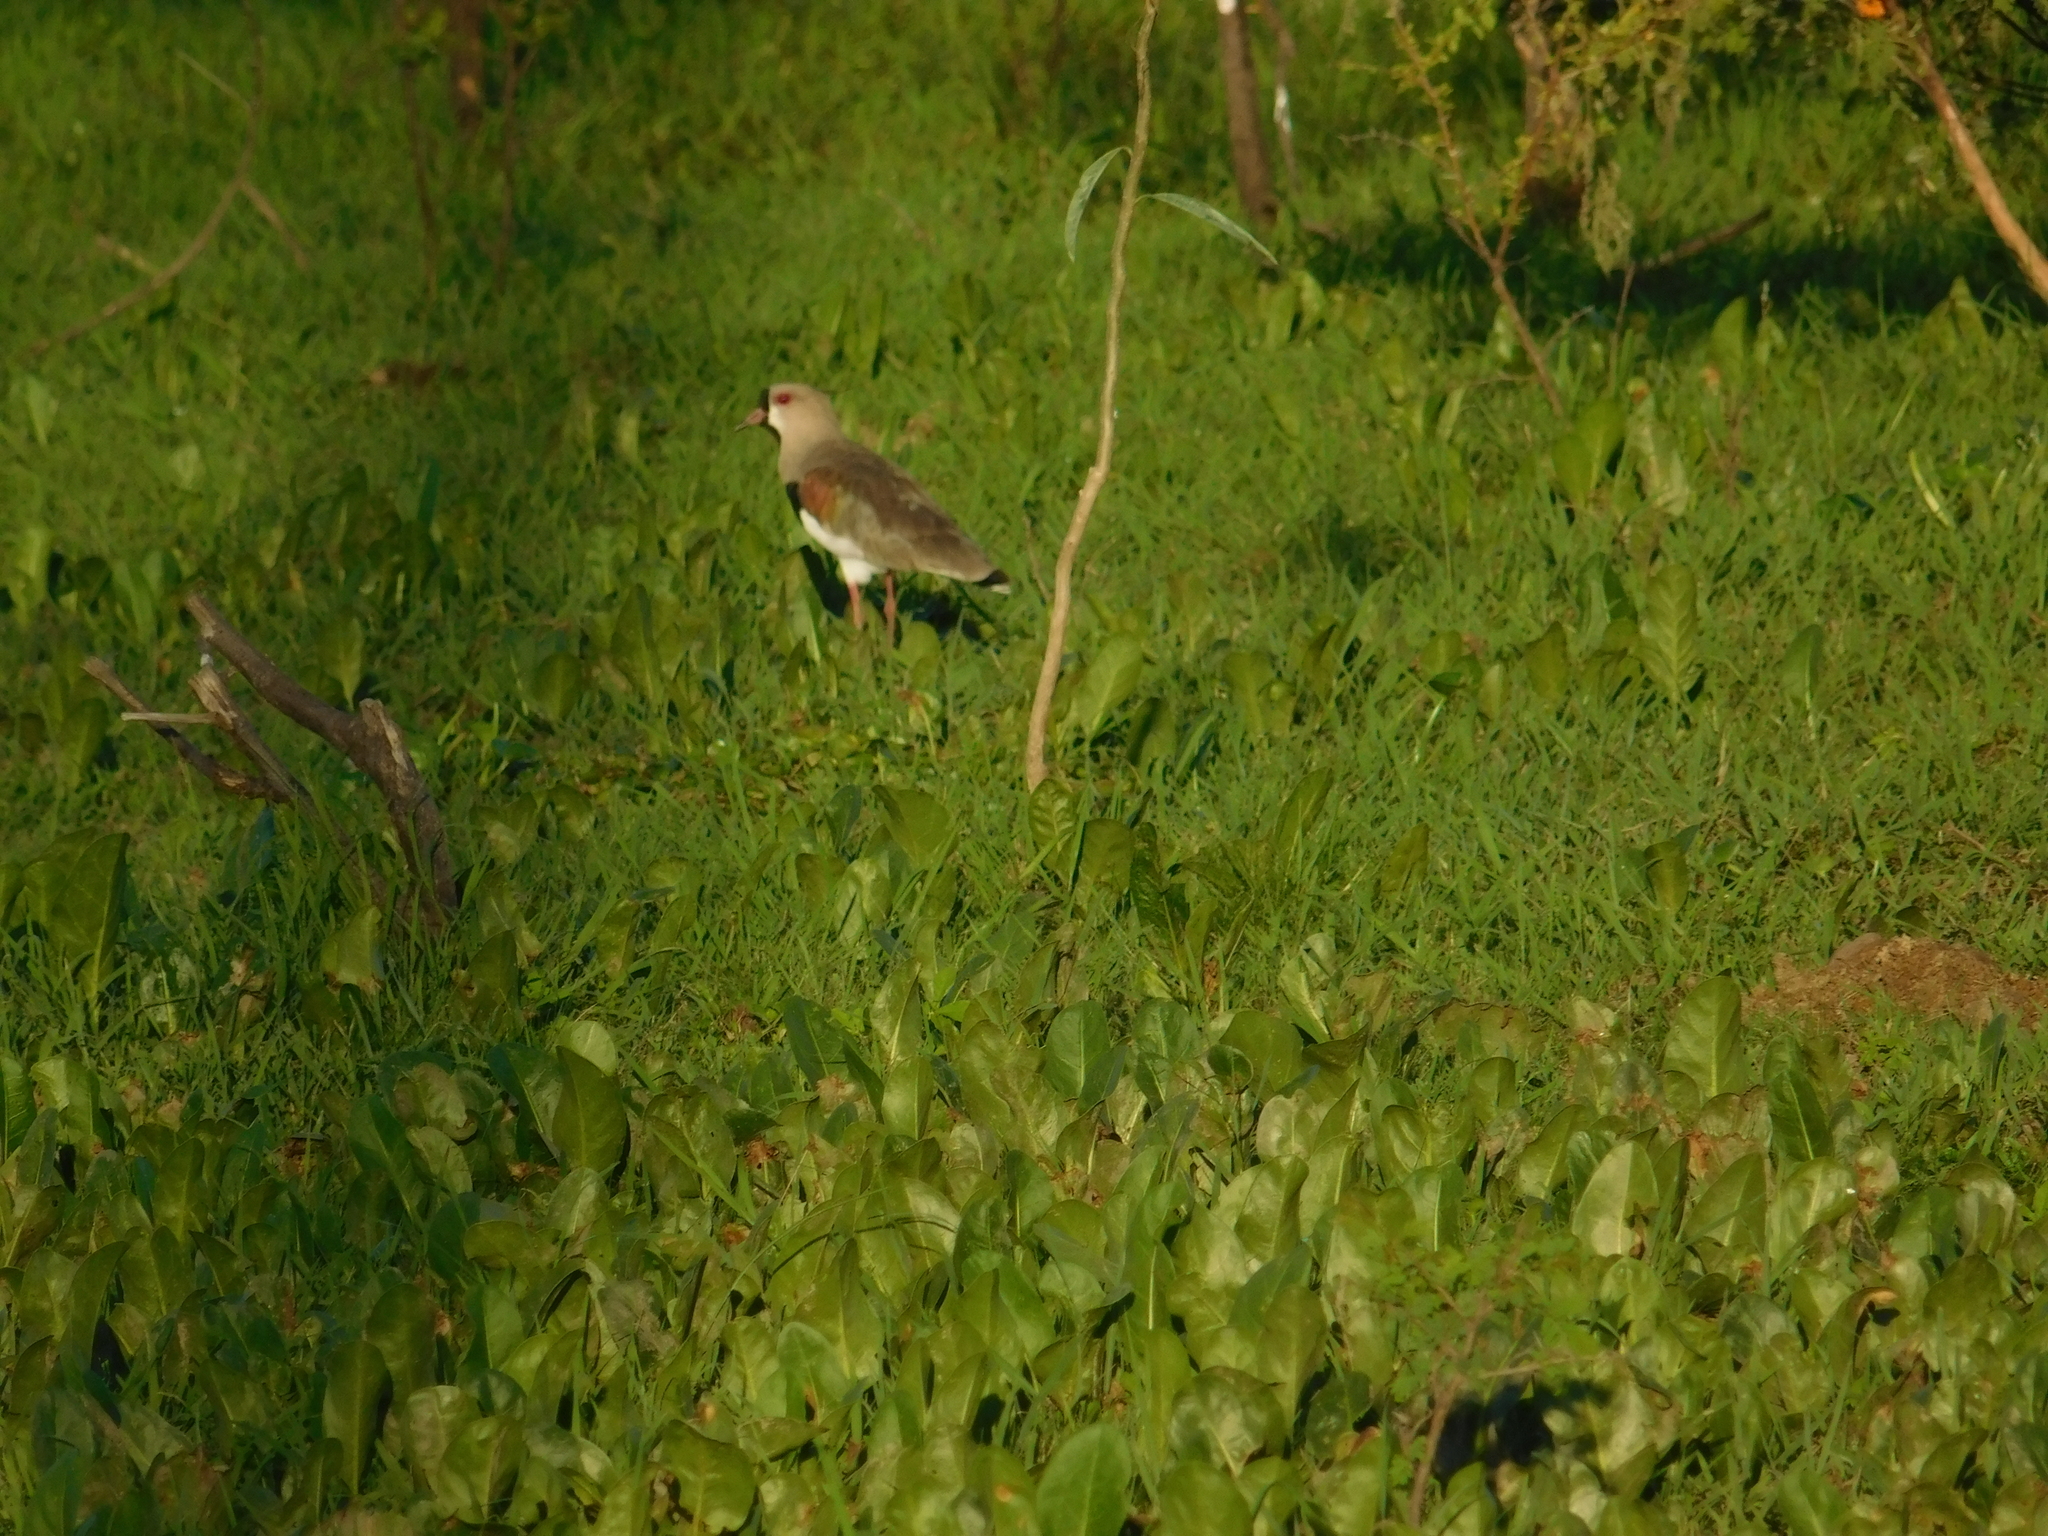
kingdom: Animalia
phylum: Chordata
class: Aves
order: Charadriiformes
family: Charadriidae
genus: Vanellus
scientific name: Vanellus chilensis
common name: Southern lapwing
